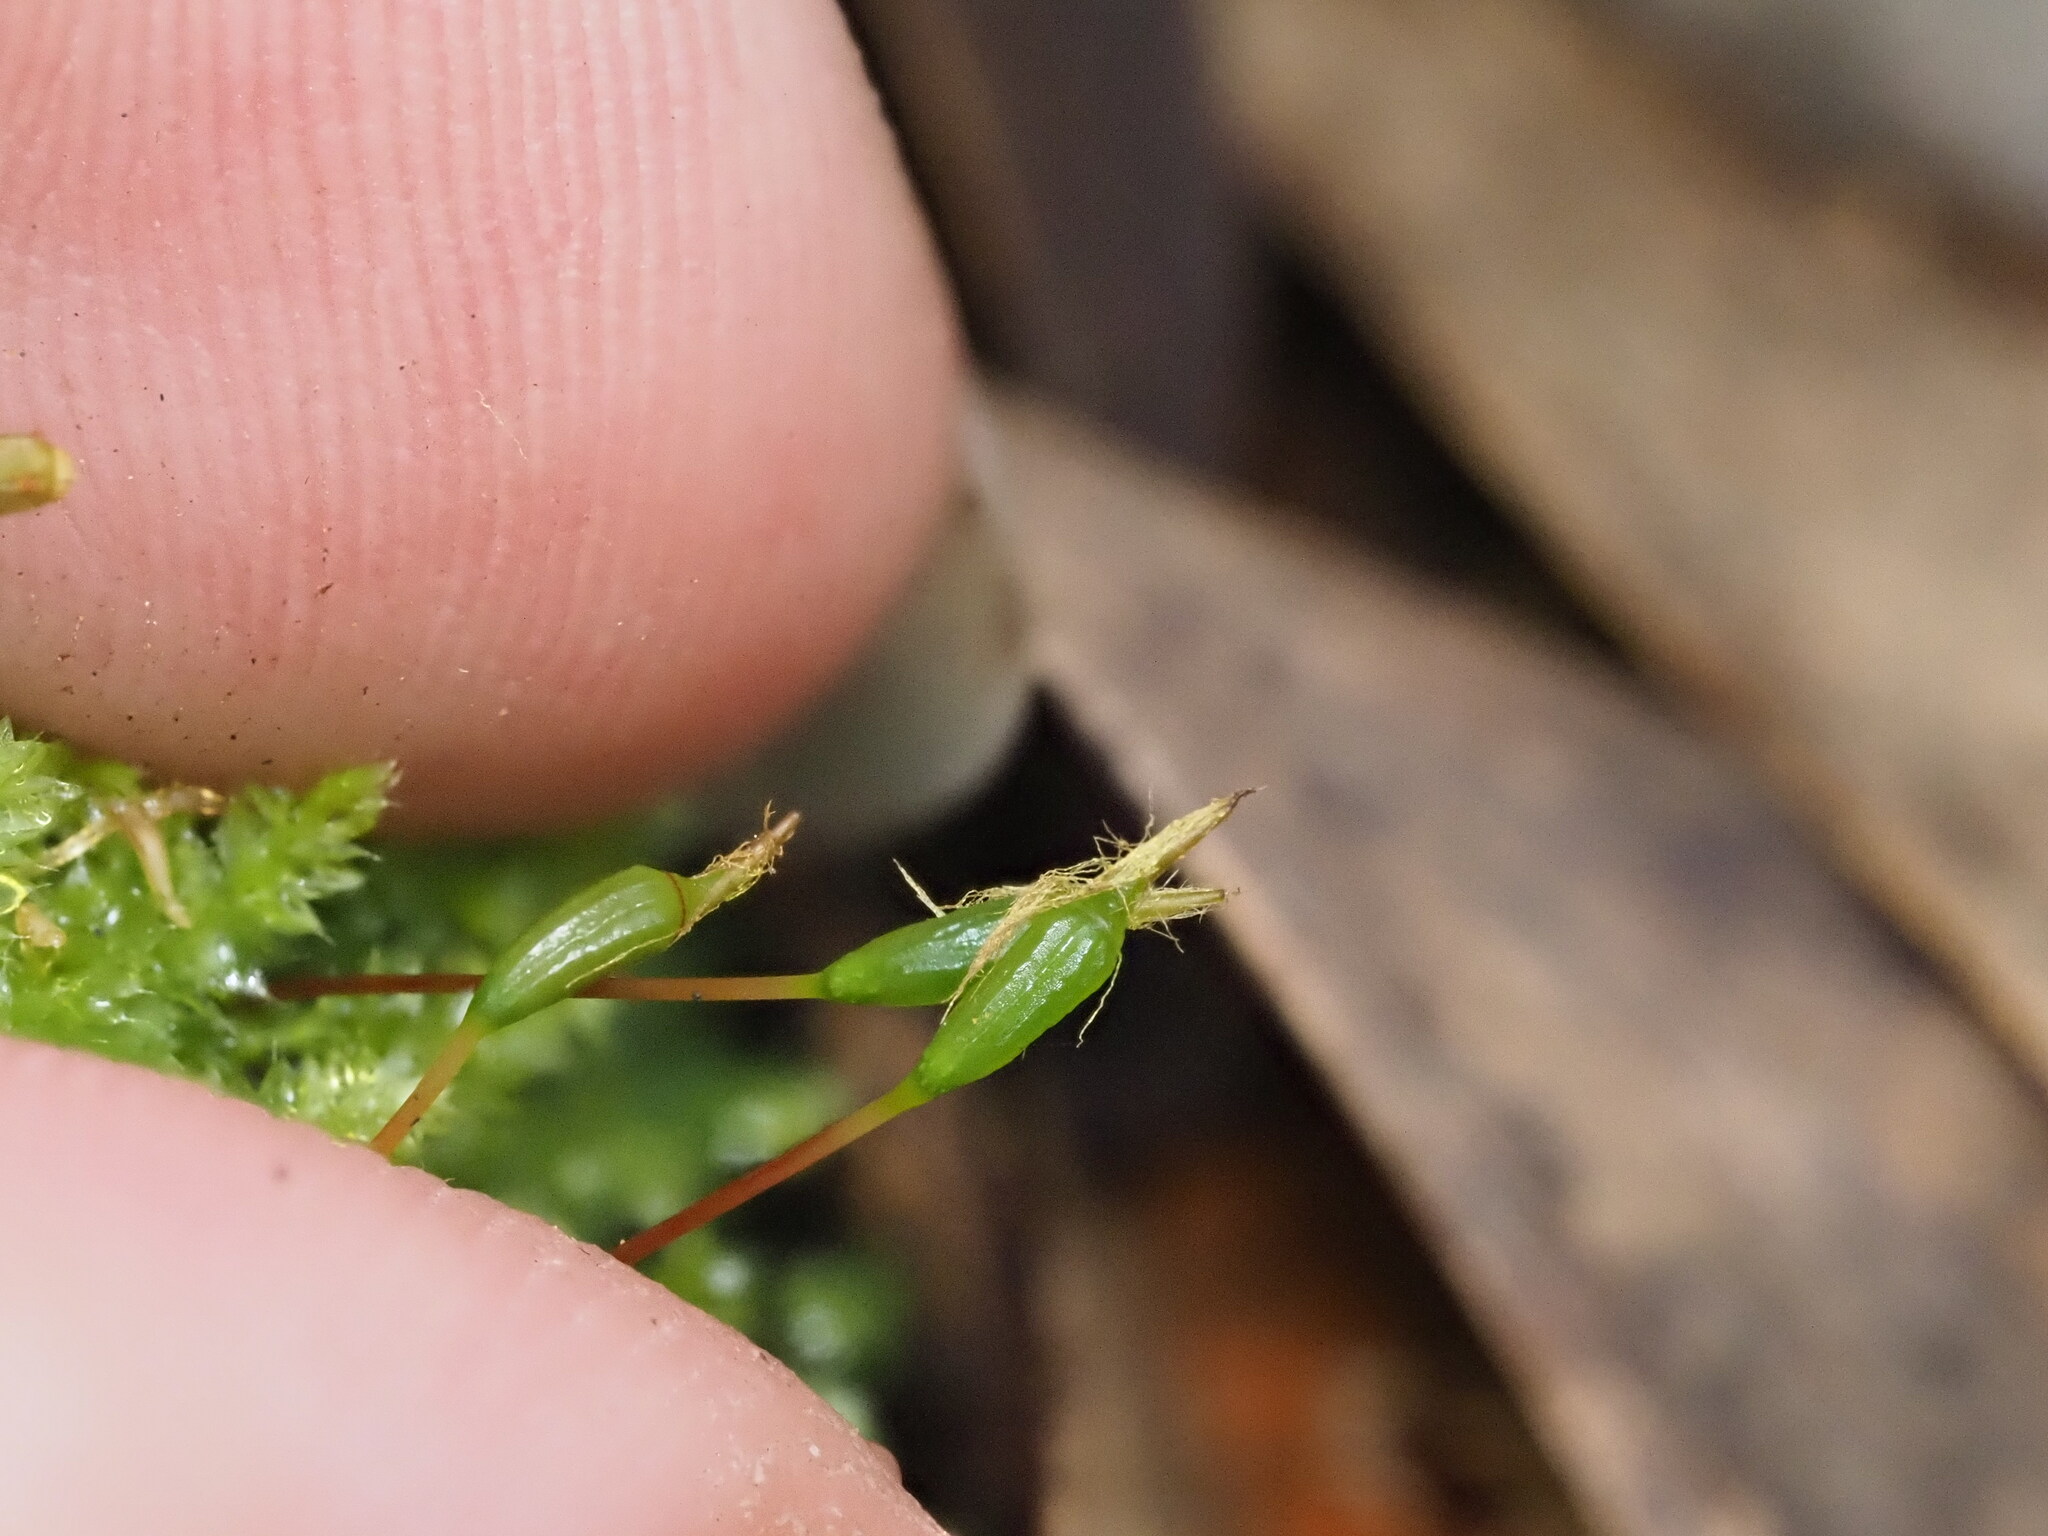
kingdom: Plantae
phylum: Bryophyta
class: Bryopsida
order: Hypnodendrales
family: Racopilaceae
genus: Racopilum
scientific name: Racopilum cuspidigerum
